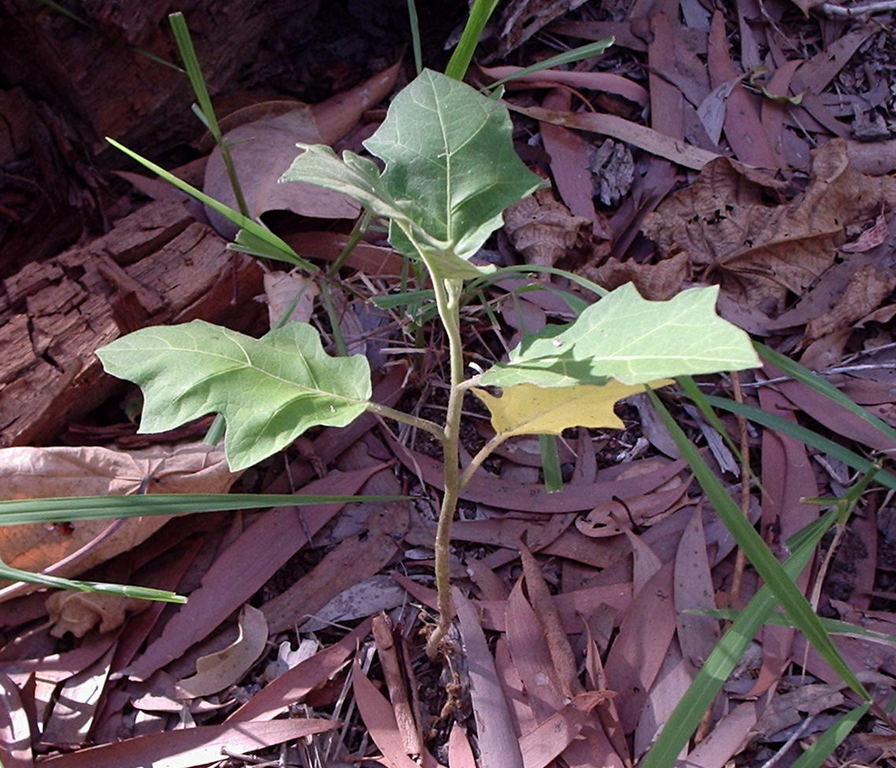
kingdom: Plantae
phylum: Tracheophyta
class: Magnoliopsida
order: Solanales
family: Solanaceae
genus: Solanum
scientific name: Solanum torvum
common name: Turkey berry
